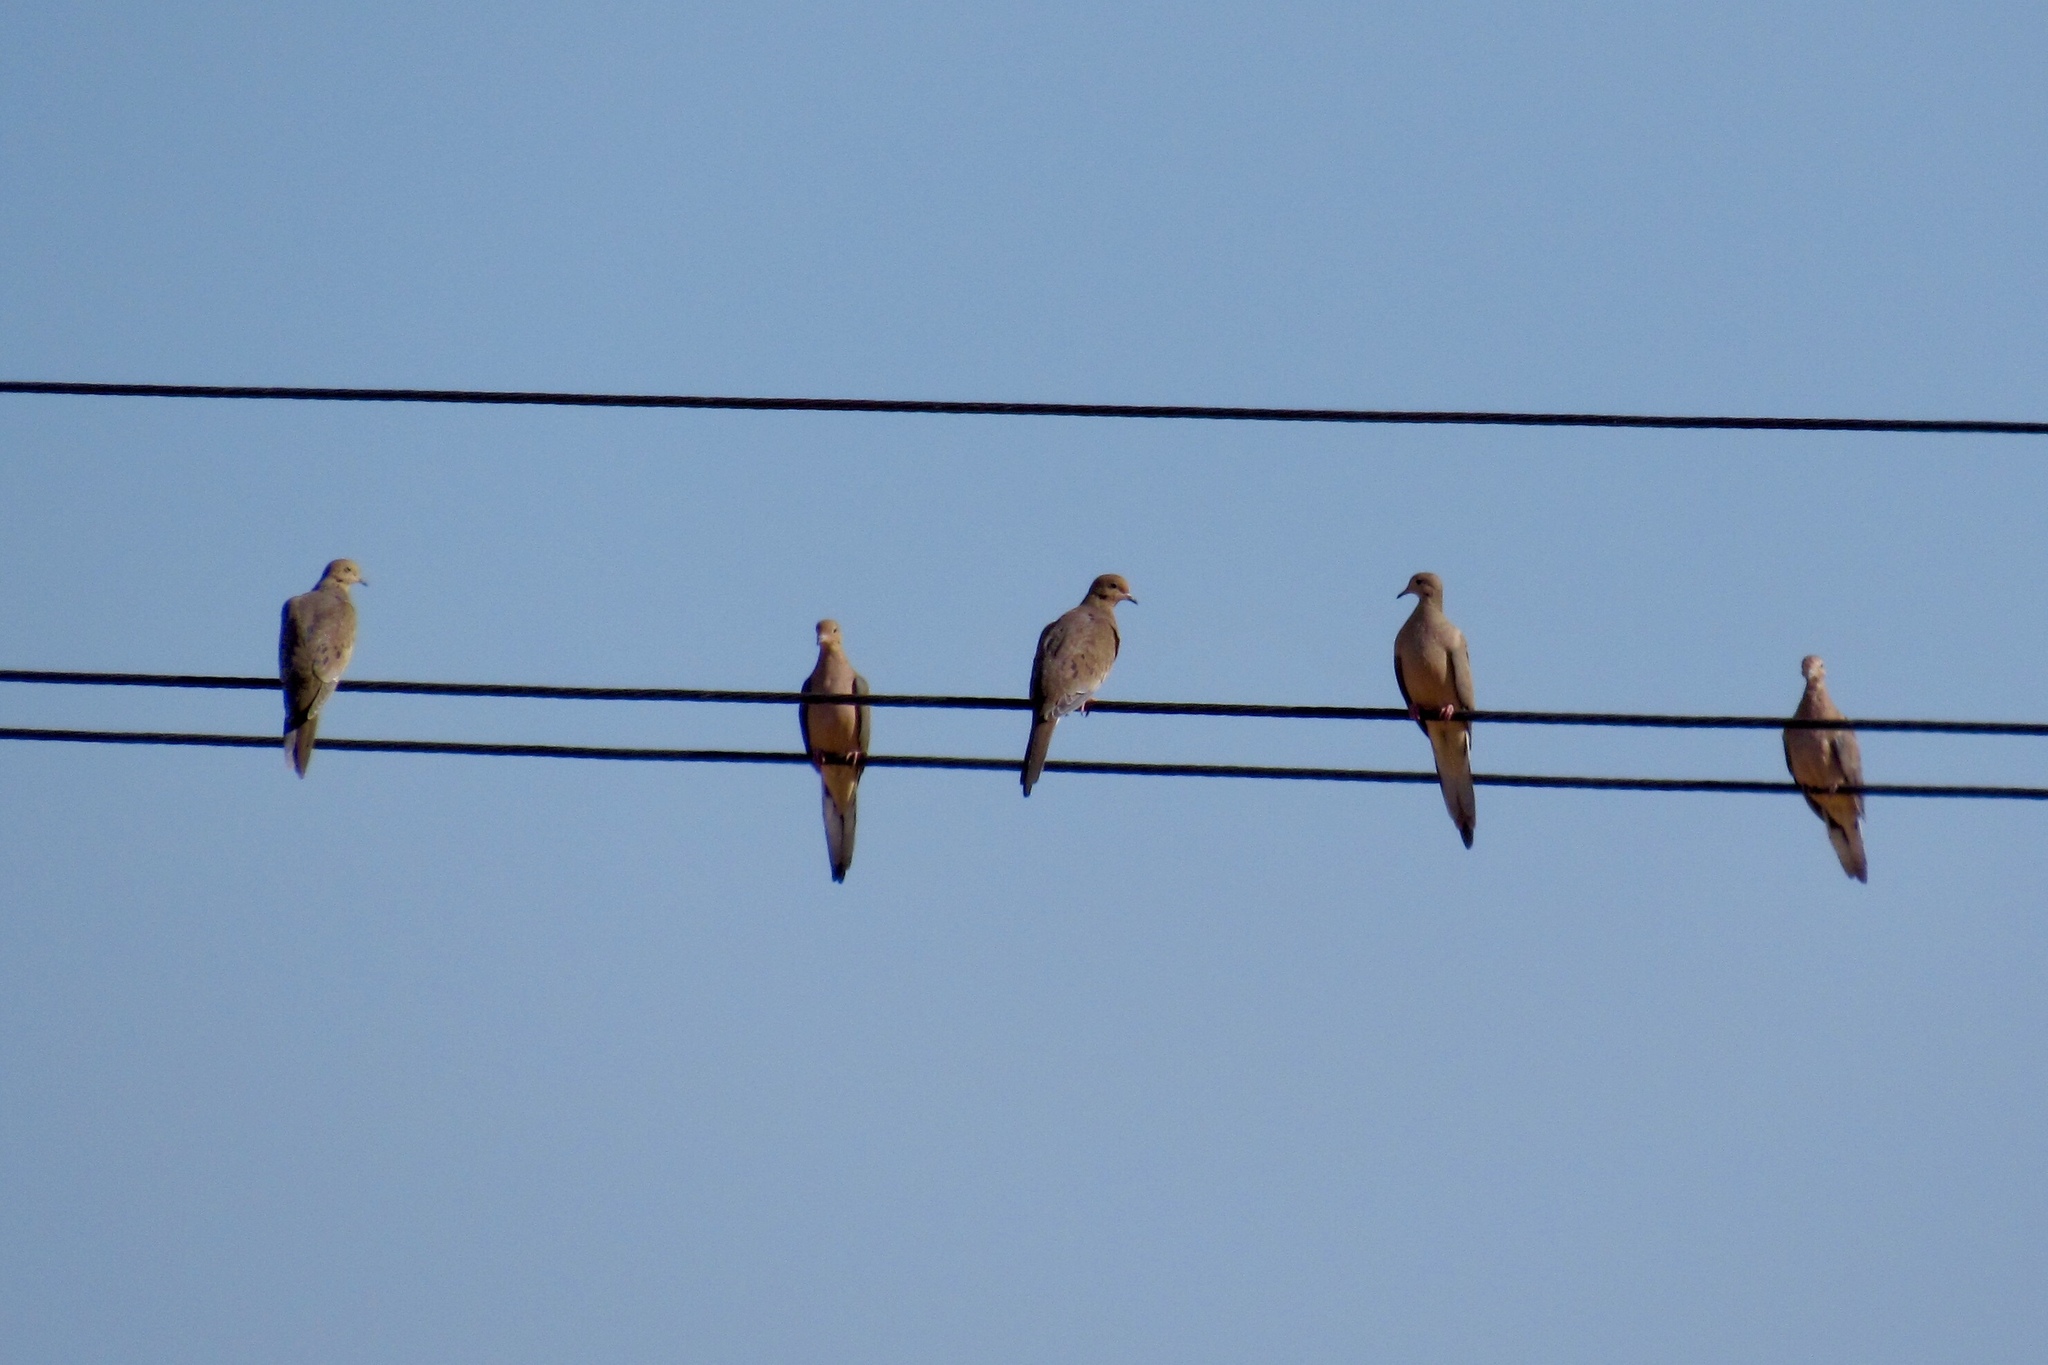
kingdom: Animalia
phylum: Chordata
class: Aves
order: Columbiformes
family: Columbidae
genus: Zenaida
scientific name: Zenaida macroura
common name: Mourning dove
